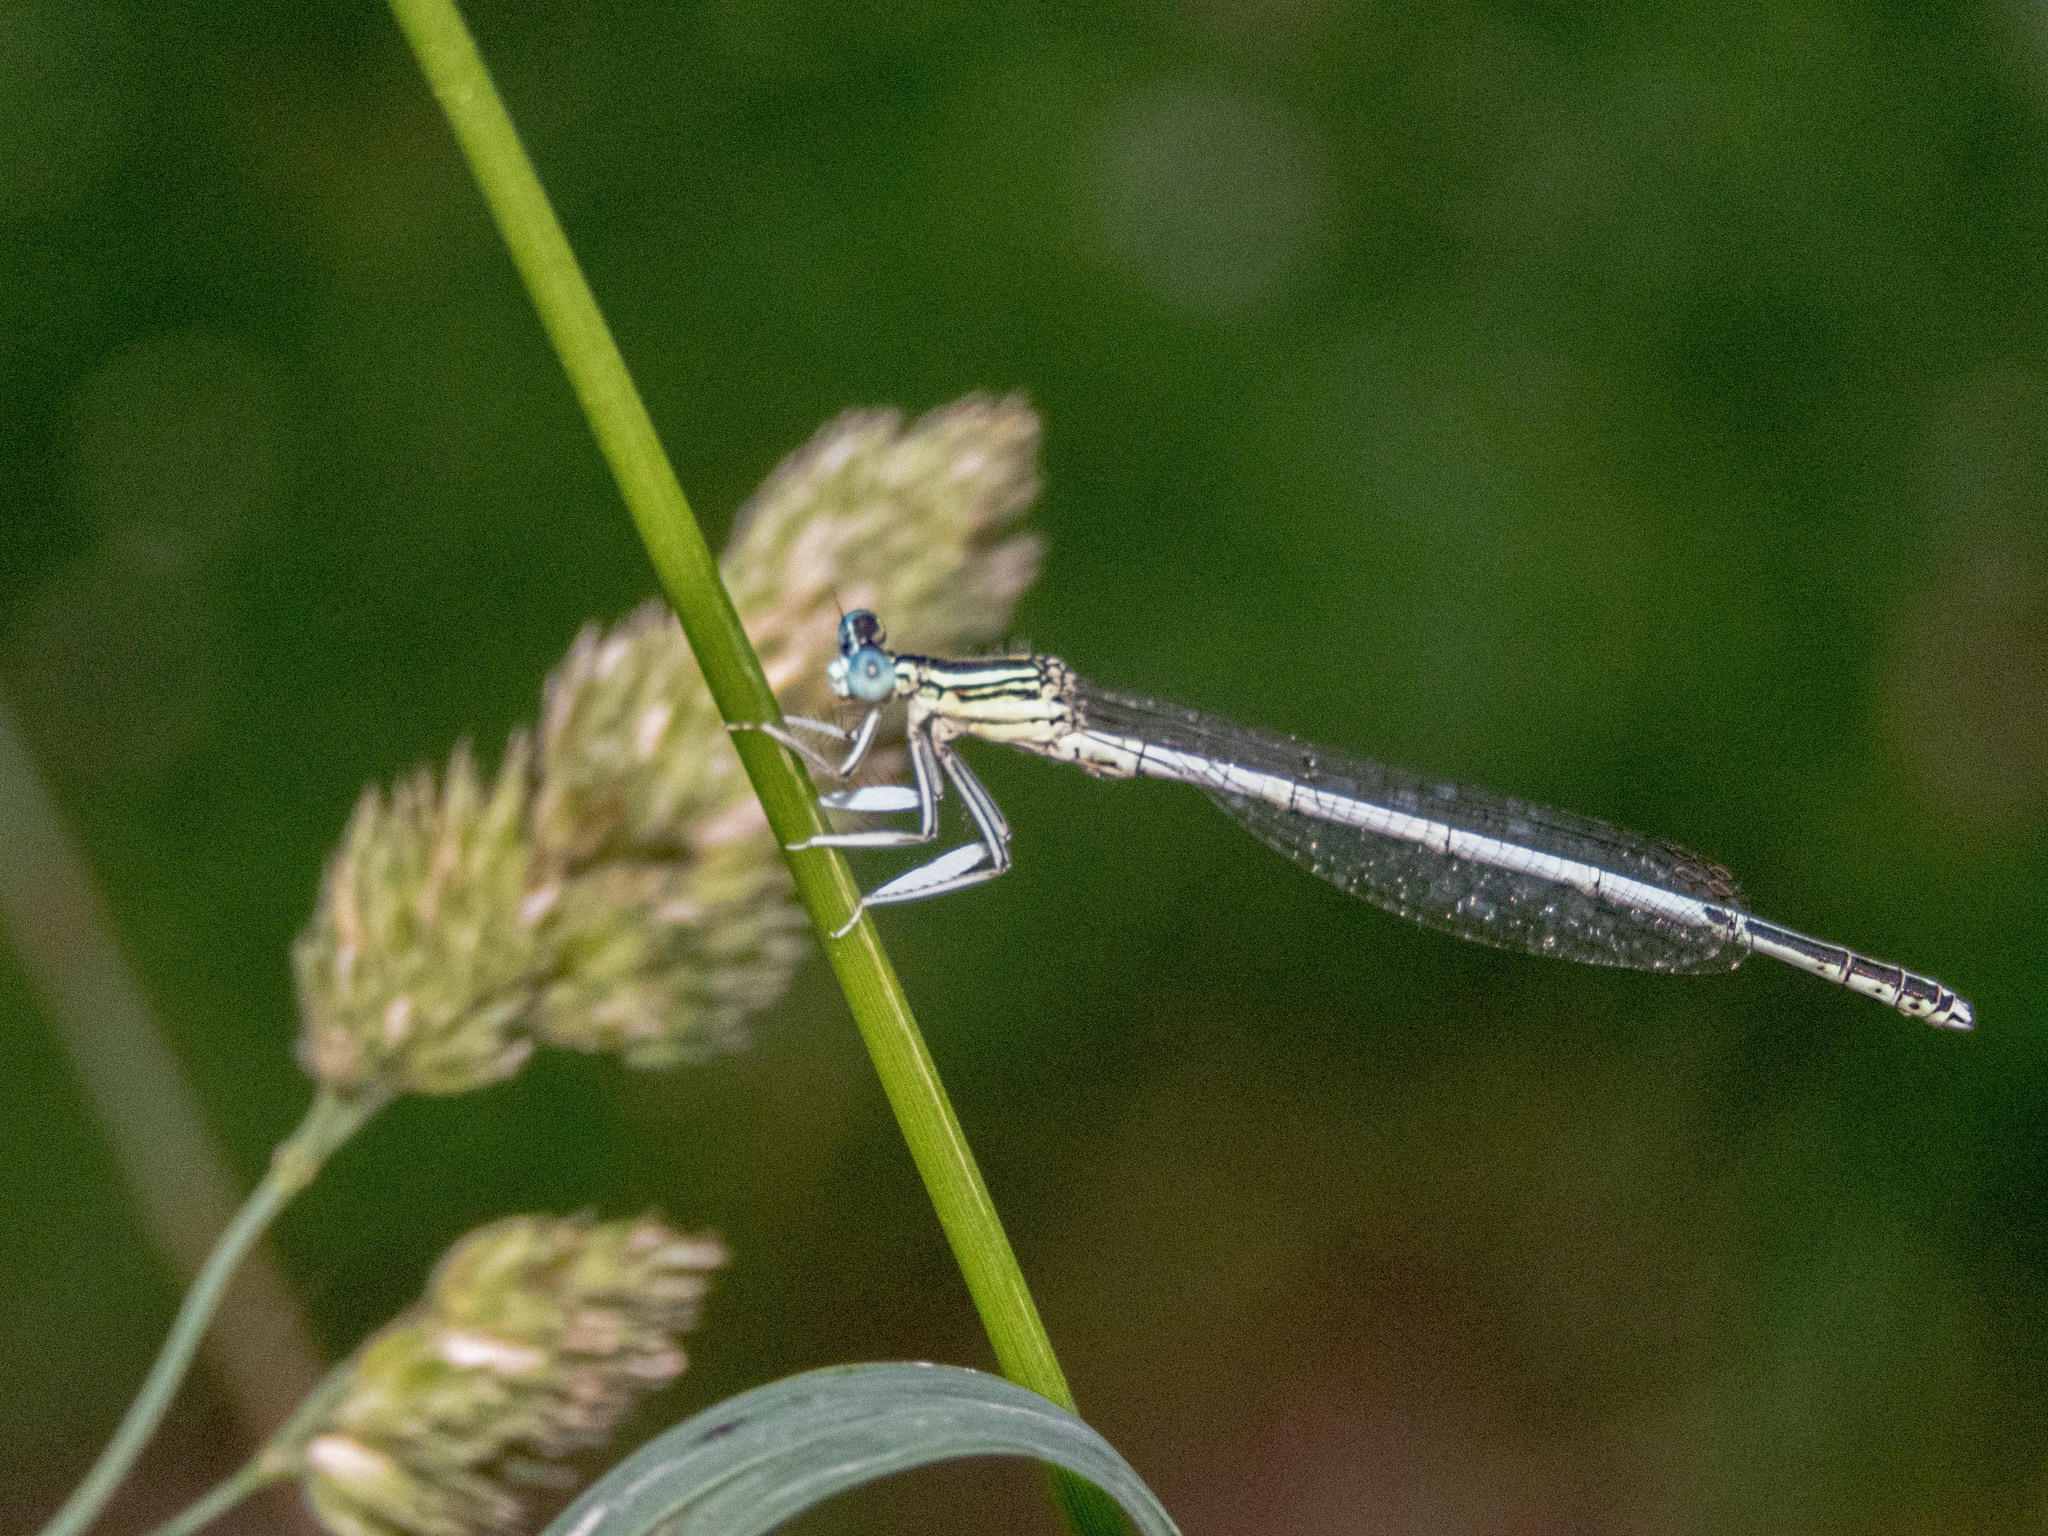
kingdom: Animalia
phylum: Arthropoda
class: Insecta
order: Odonata
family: Platycnemididae
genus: Platycnemis
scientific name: Platycnemis latipes
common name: White featherleg
